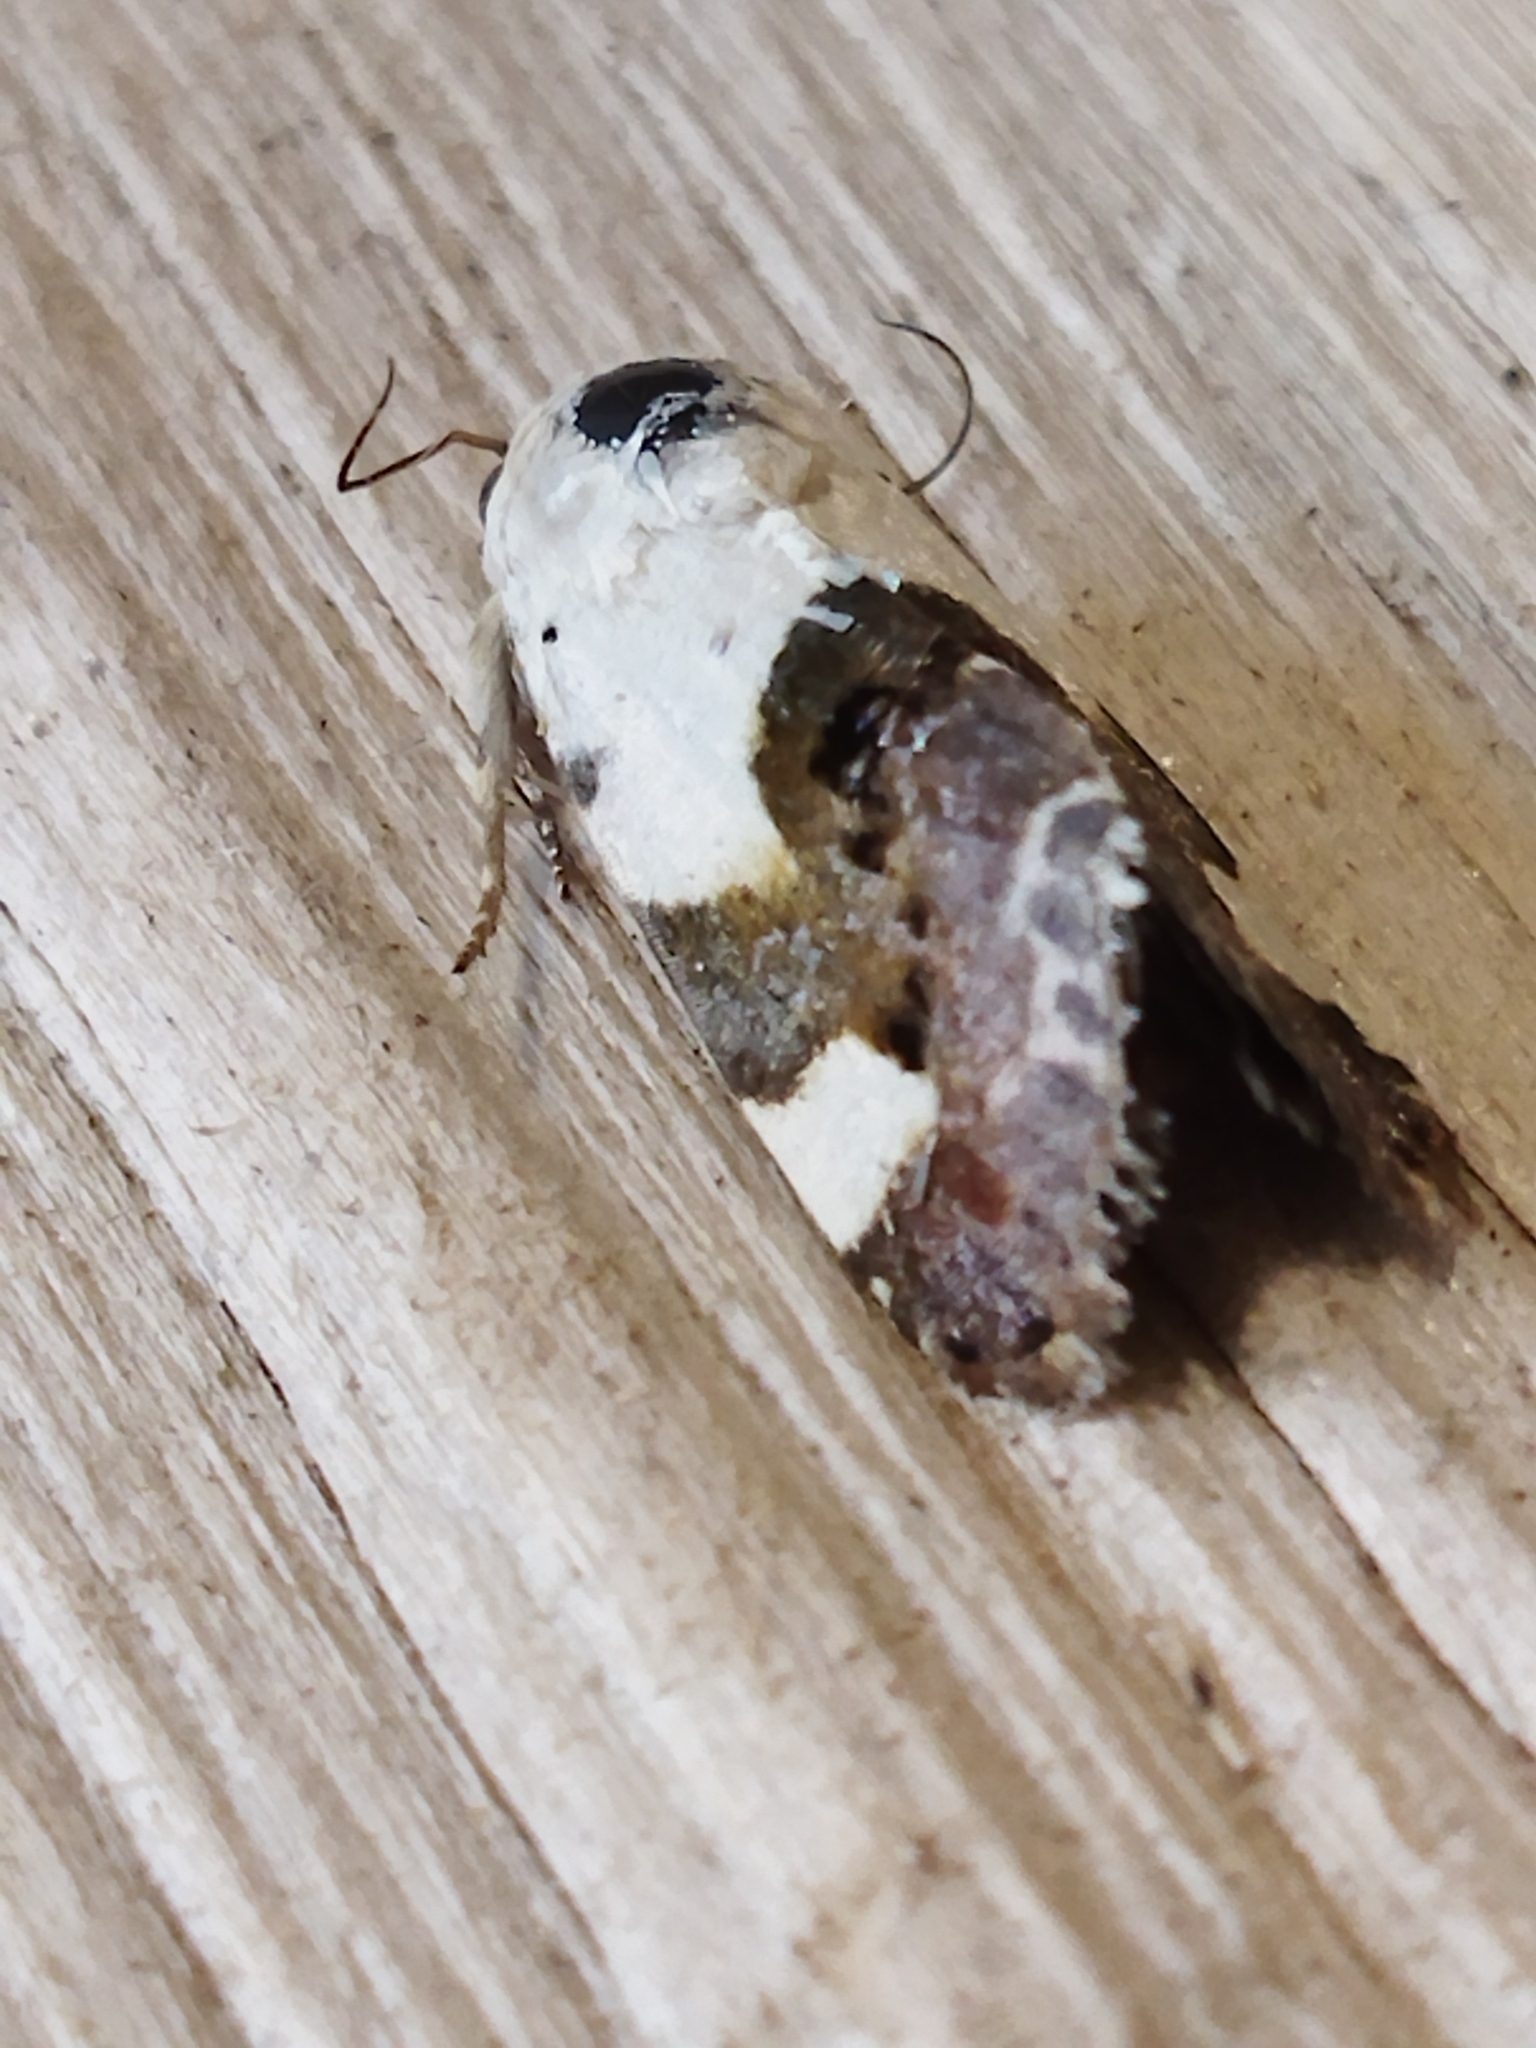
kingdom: Animalia
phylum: Arthropoda
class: Insecta
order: Lepidoptera
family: Noctuidae
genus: Acontia
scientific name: Acontia lucida
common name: Pale shoulder
